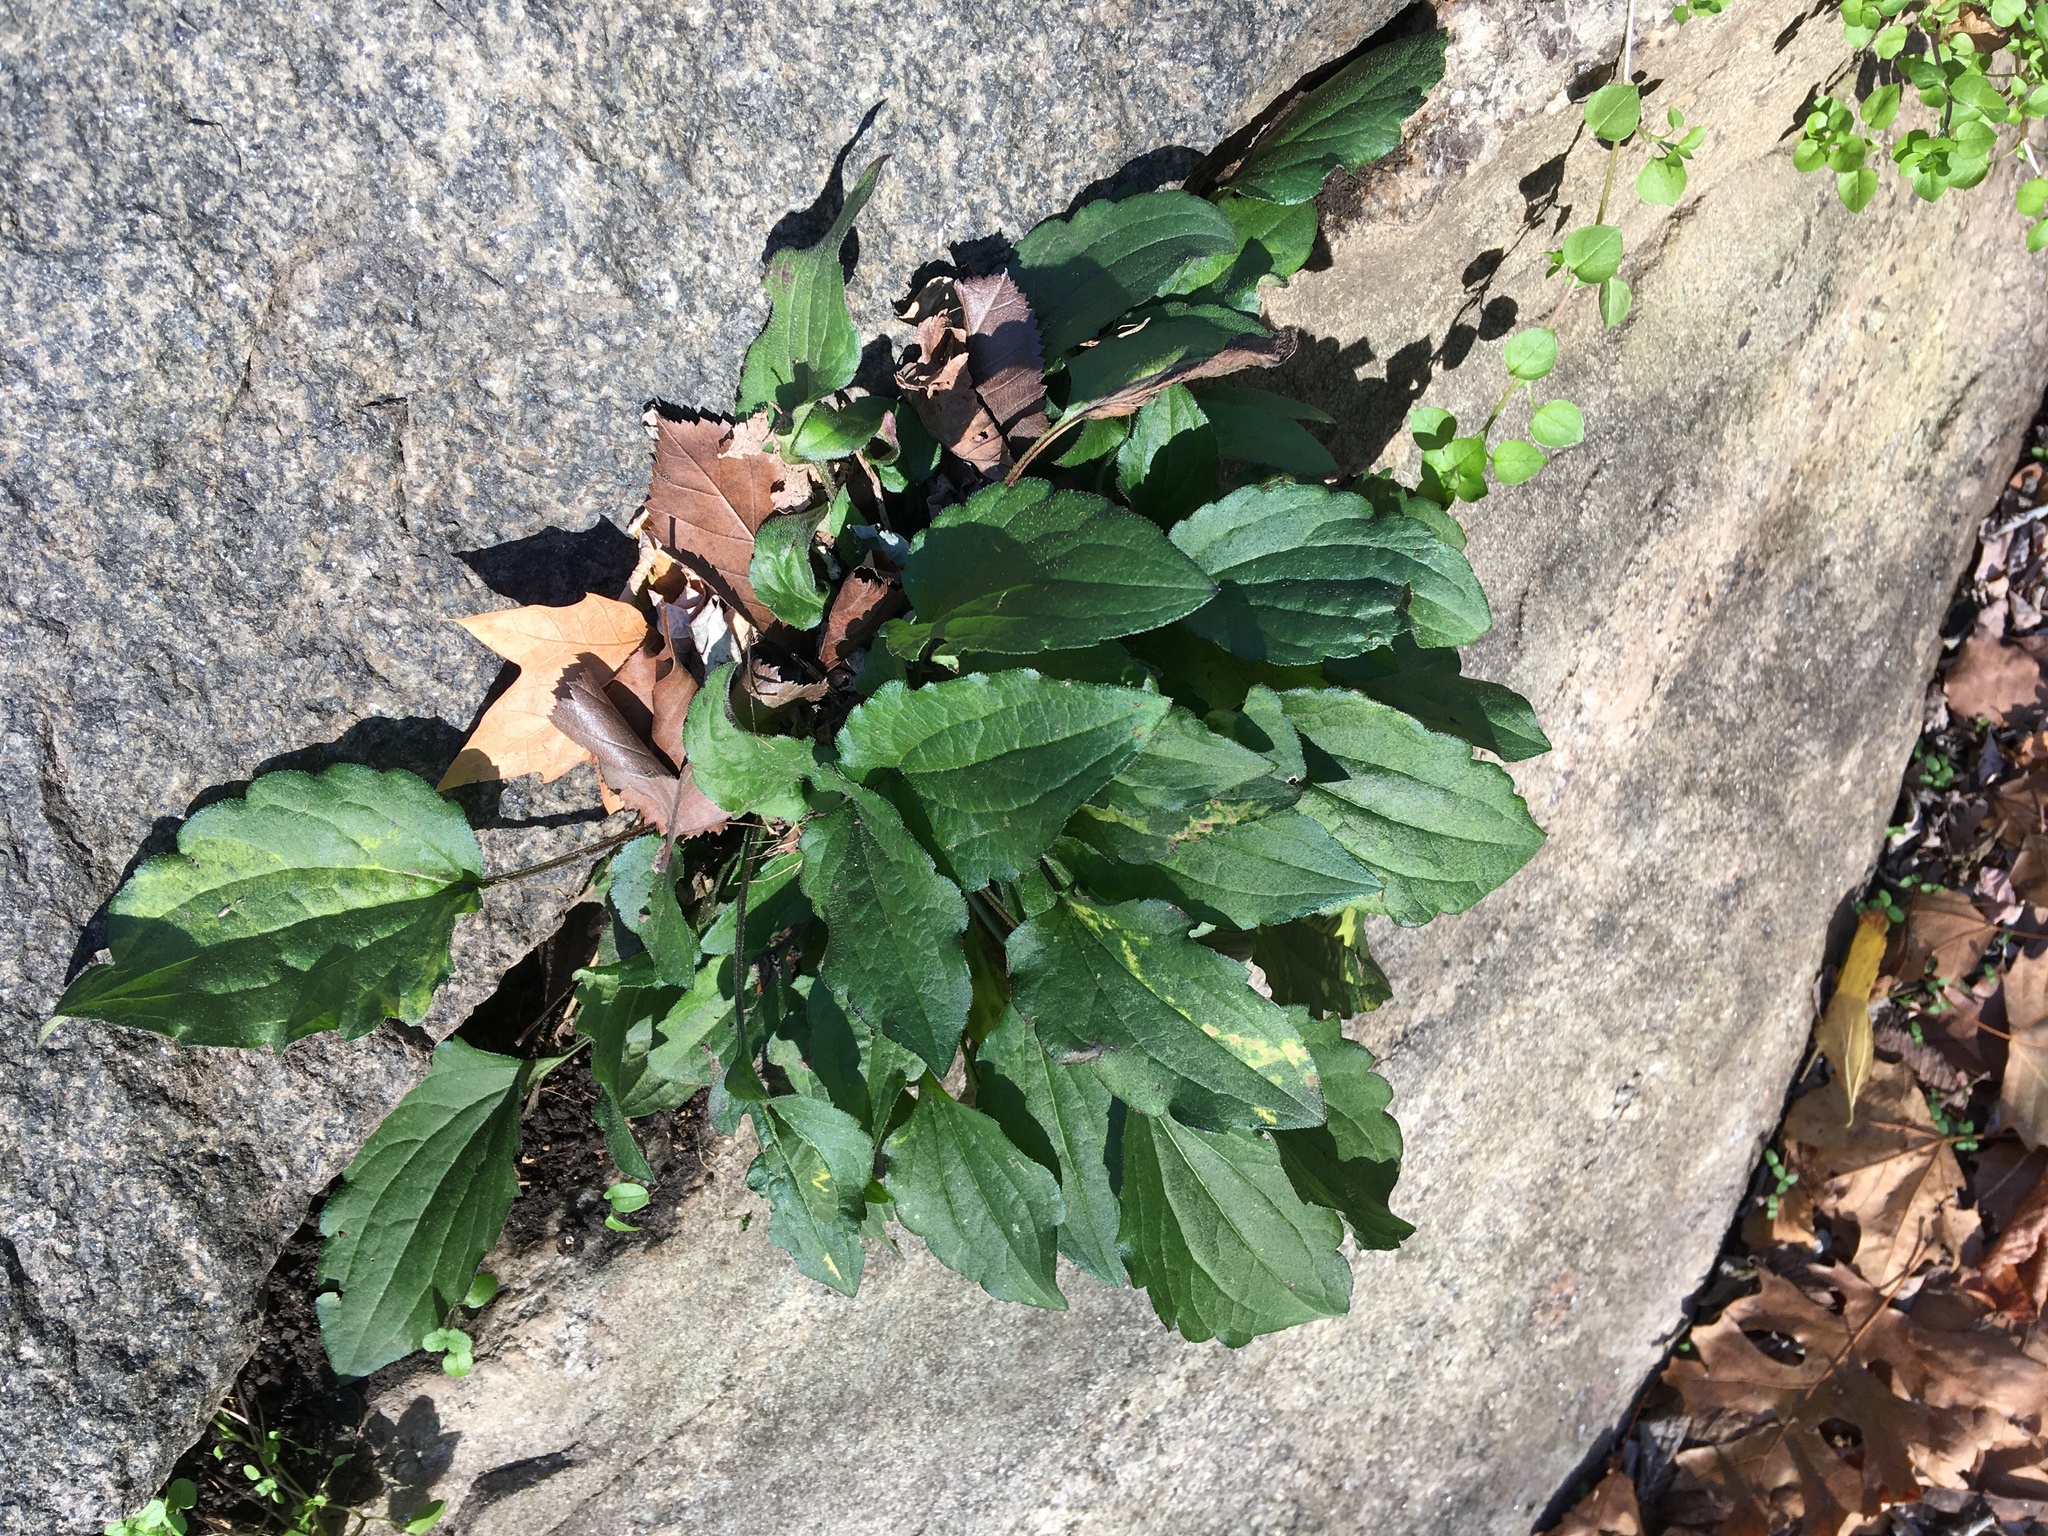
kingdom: Plantae
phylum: Tracheophyta
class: Magnoliopsida
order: Asterales
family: Asteraceae
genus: Rudbeckia
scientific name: Rudbeckia triloba
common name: Thin-leaved coneflower
